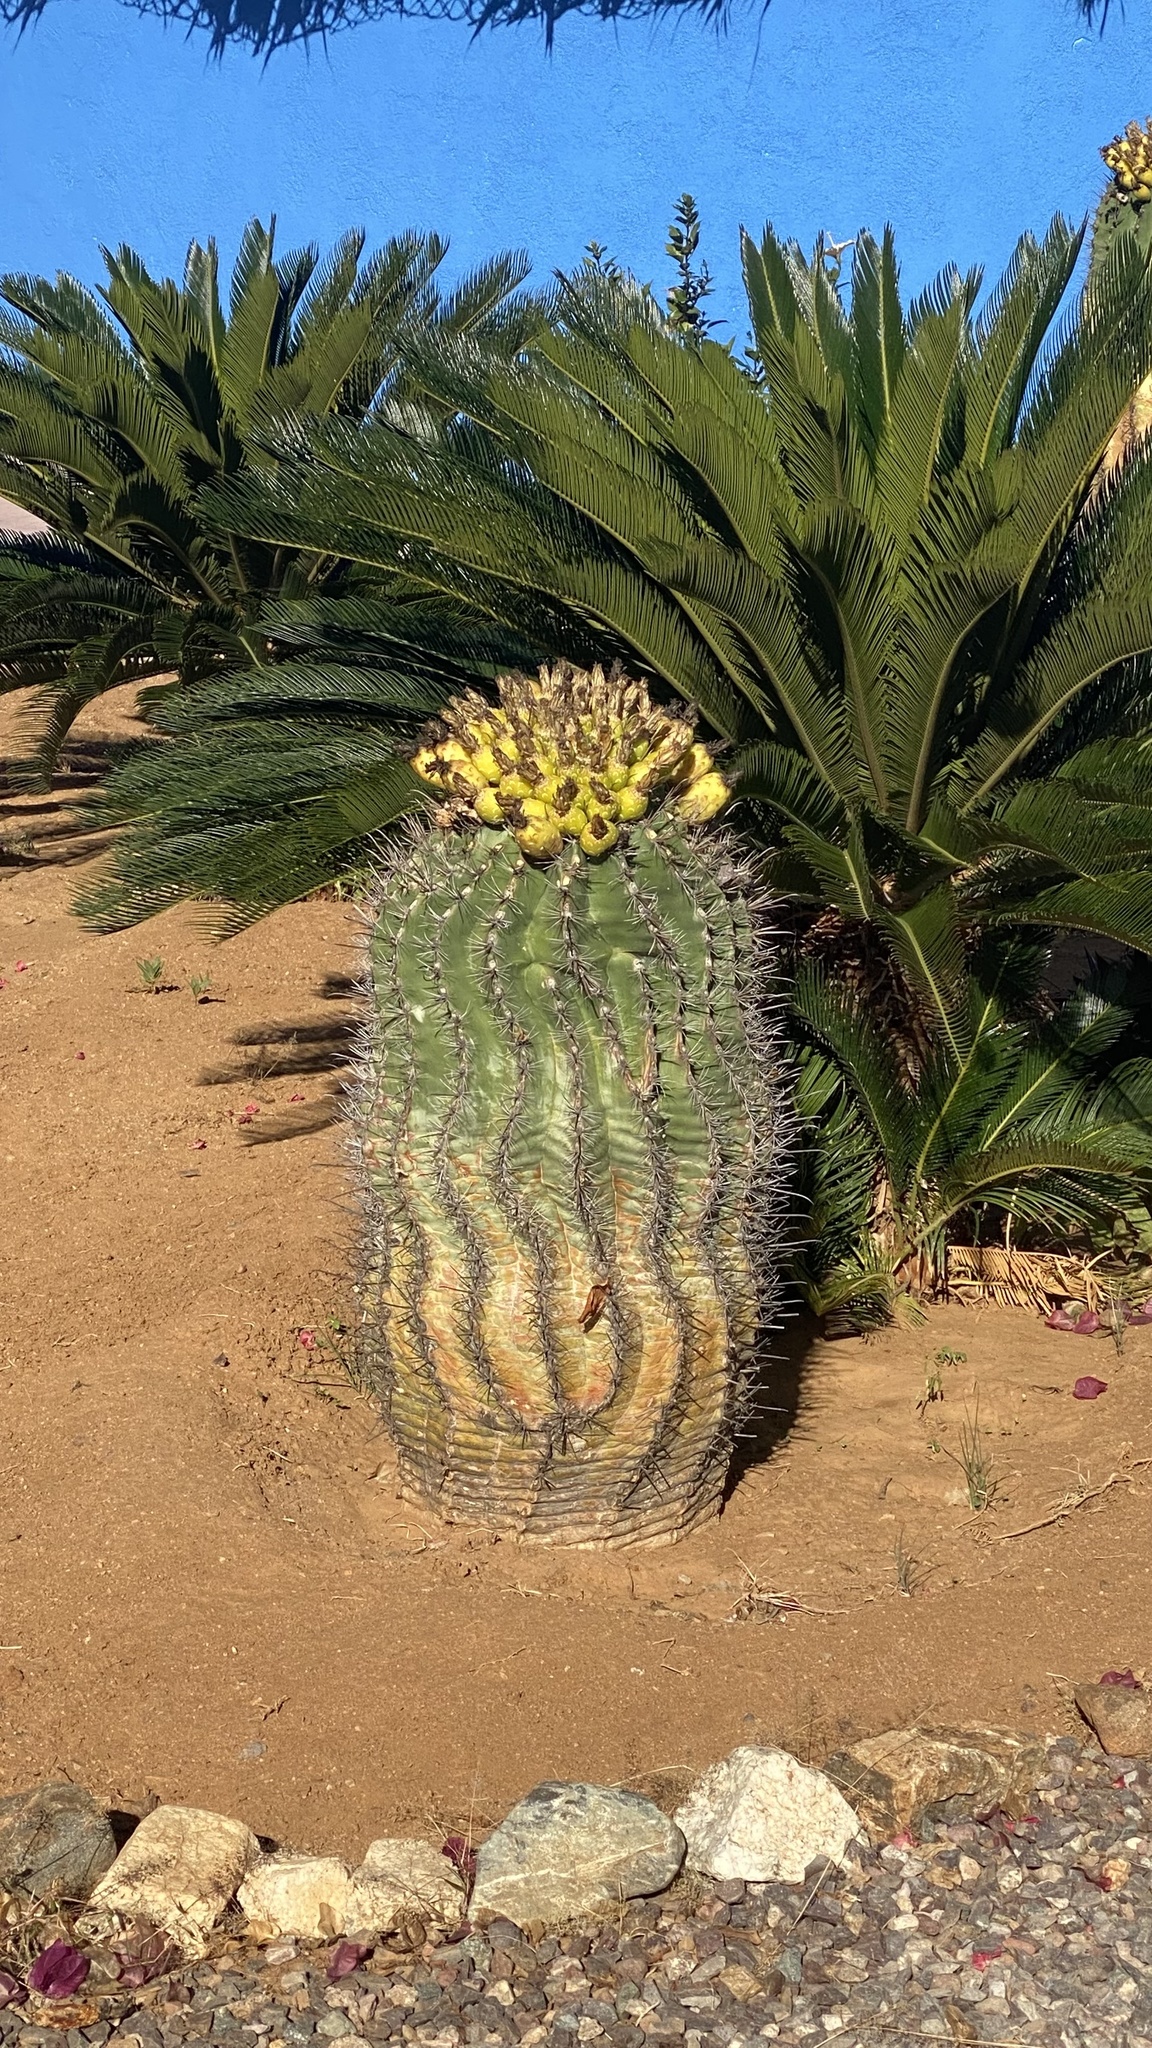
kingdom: Plantae
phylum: Tracheophyta
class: Magnoliopsida
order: Caryophyllales
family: Cactaceae
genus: Ferocactus
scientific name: Ferocactus townsendianus
